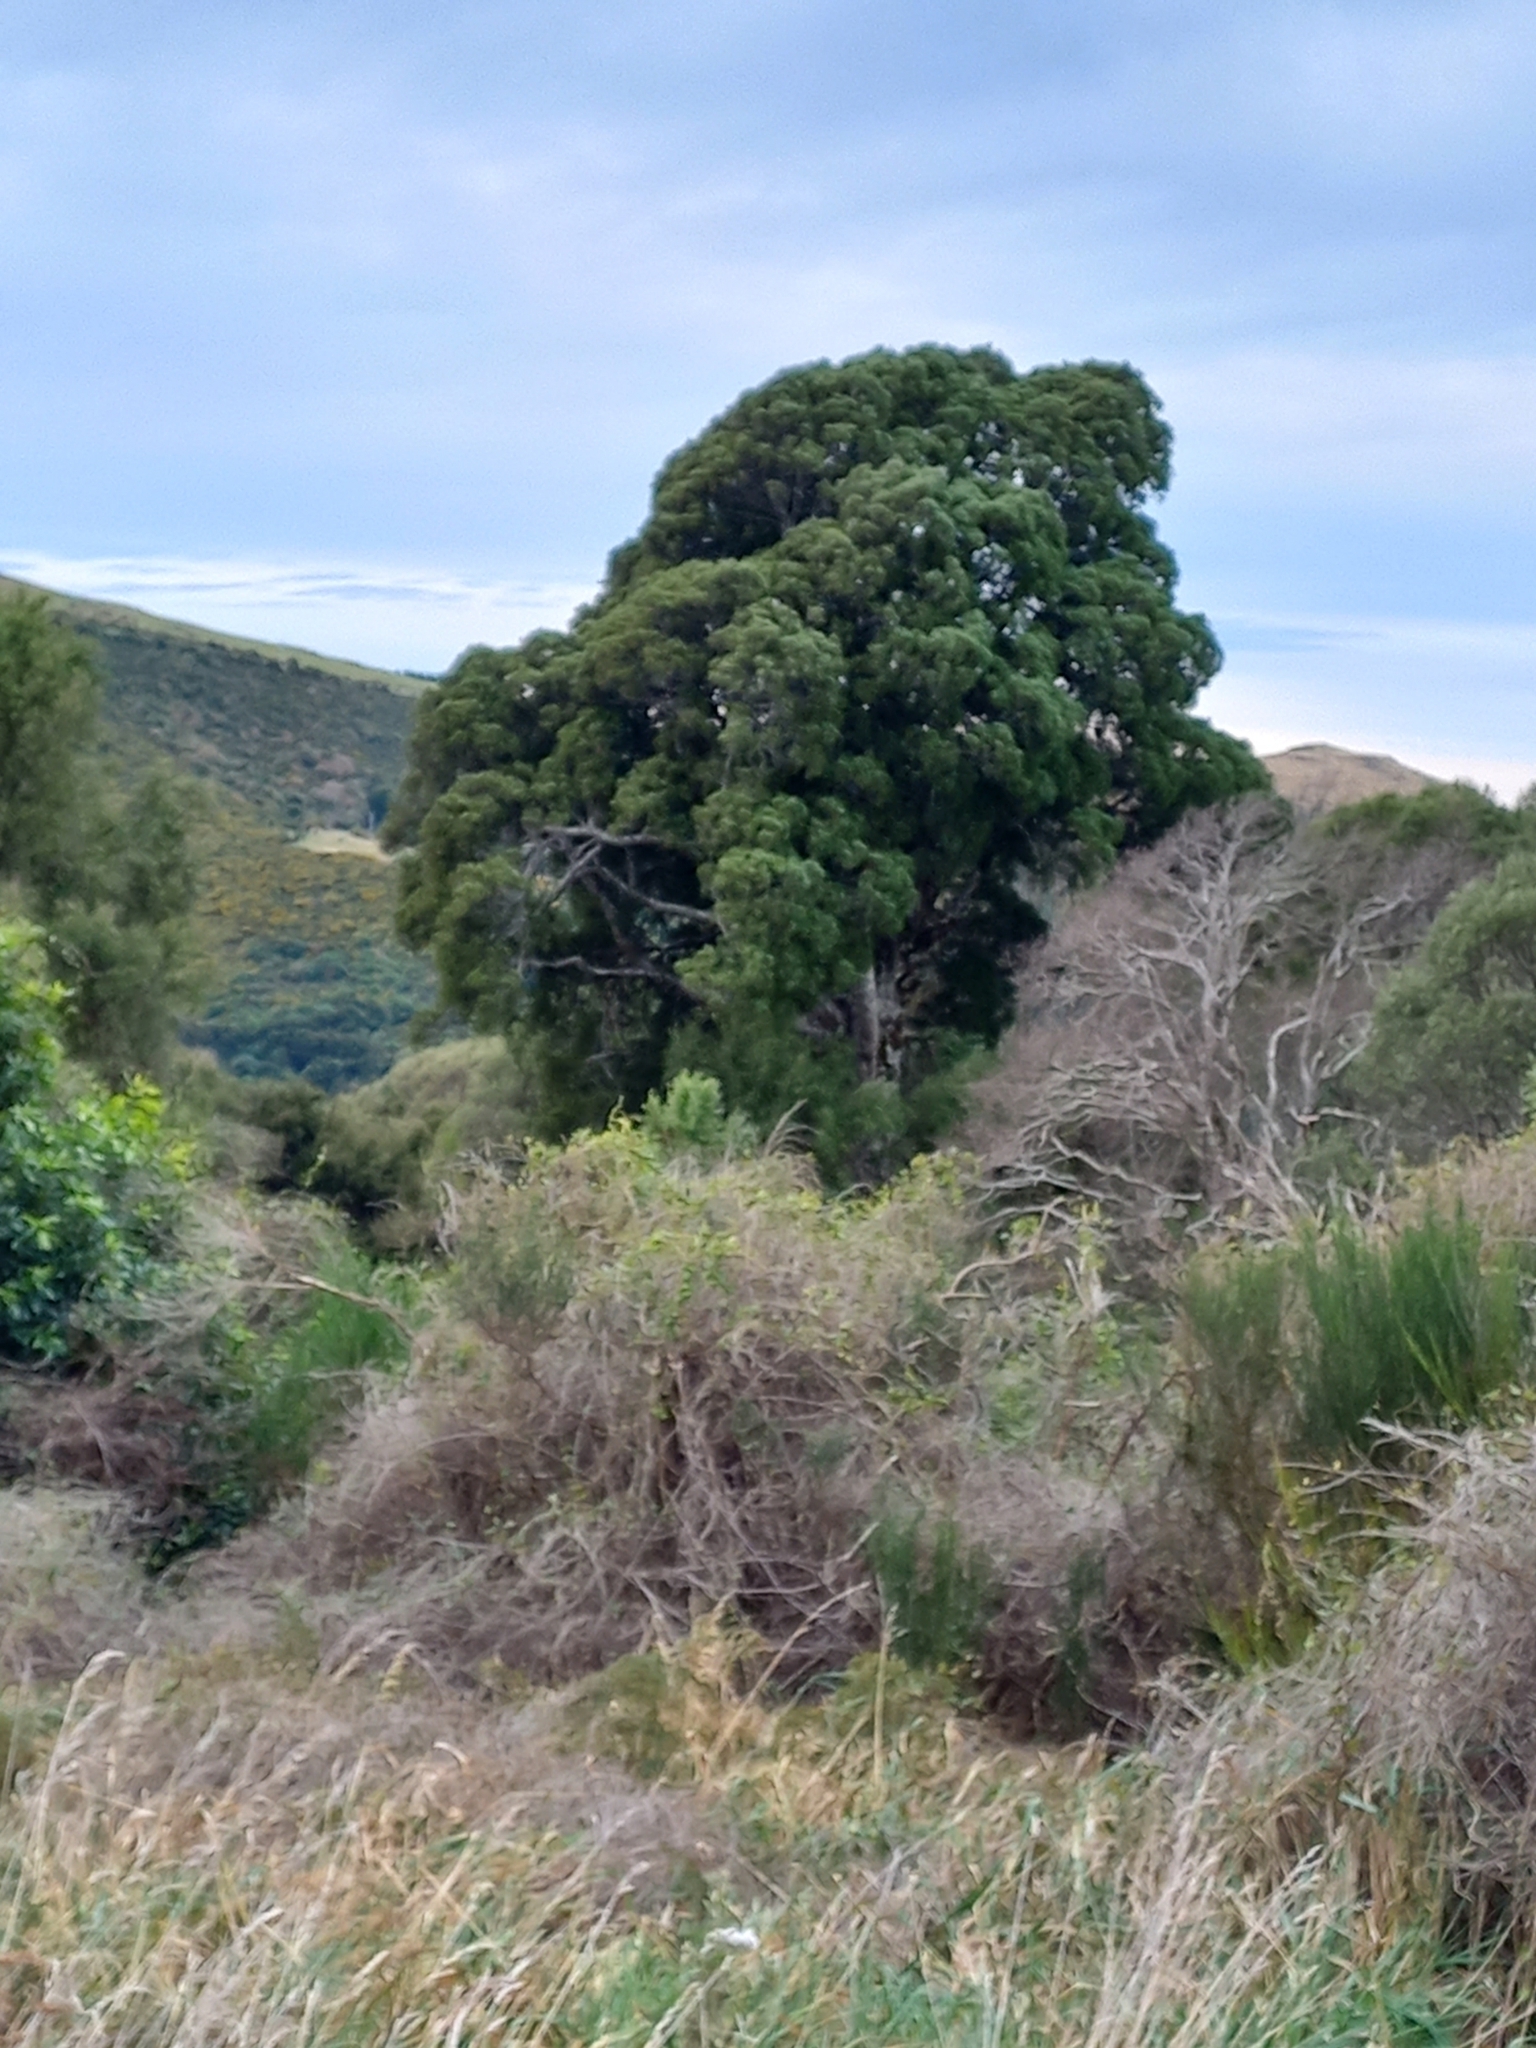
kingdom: Plantae
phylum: Tracheophyta
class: Pinopsida
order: Pinales
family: Podocarpaceae
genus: Dacrycarpus
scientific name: Dacrycarpus dacrydioides
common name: White pine
